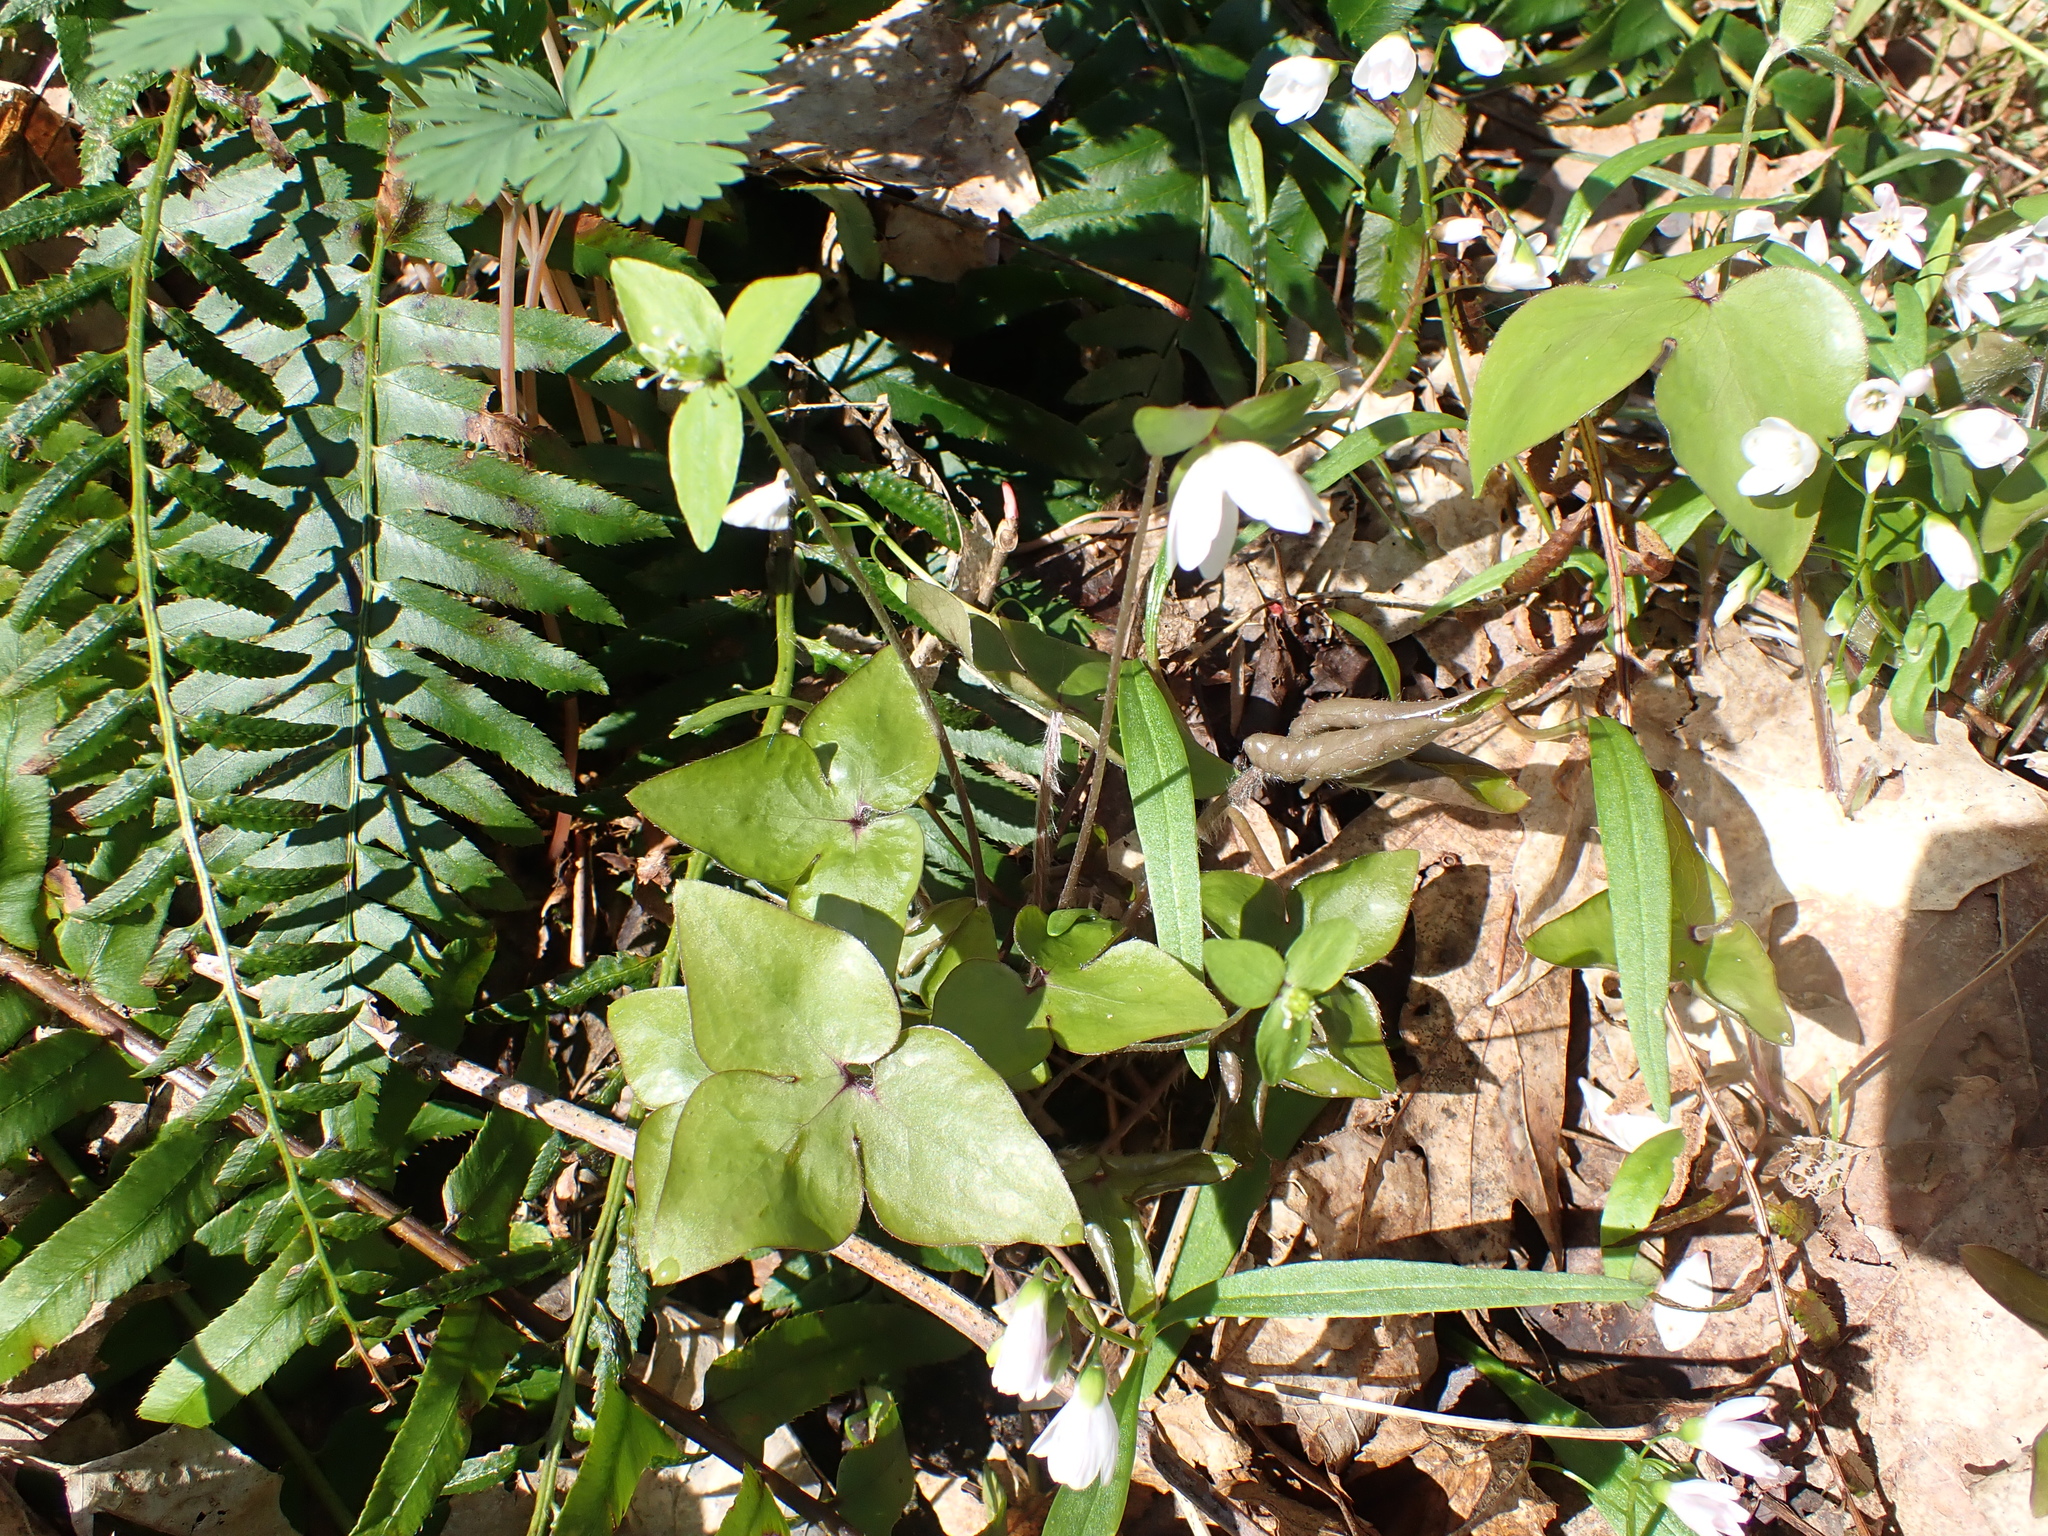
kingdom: Plantae
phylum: Tracheophyta
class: Magnoliopsida
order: Ranunculales
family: Ranunculaceae
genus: Hepatica
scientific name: Hepatica acutiloba
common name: Sharp-lobed hepatica
